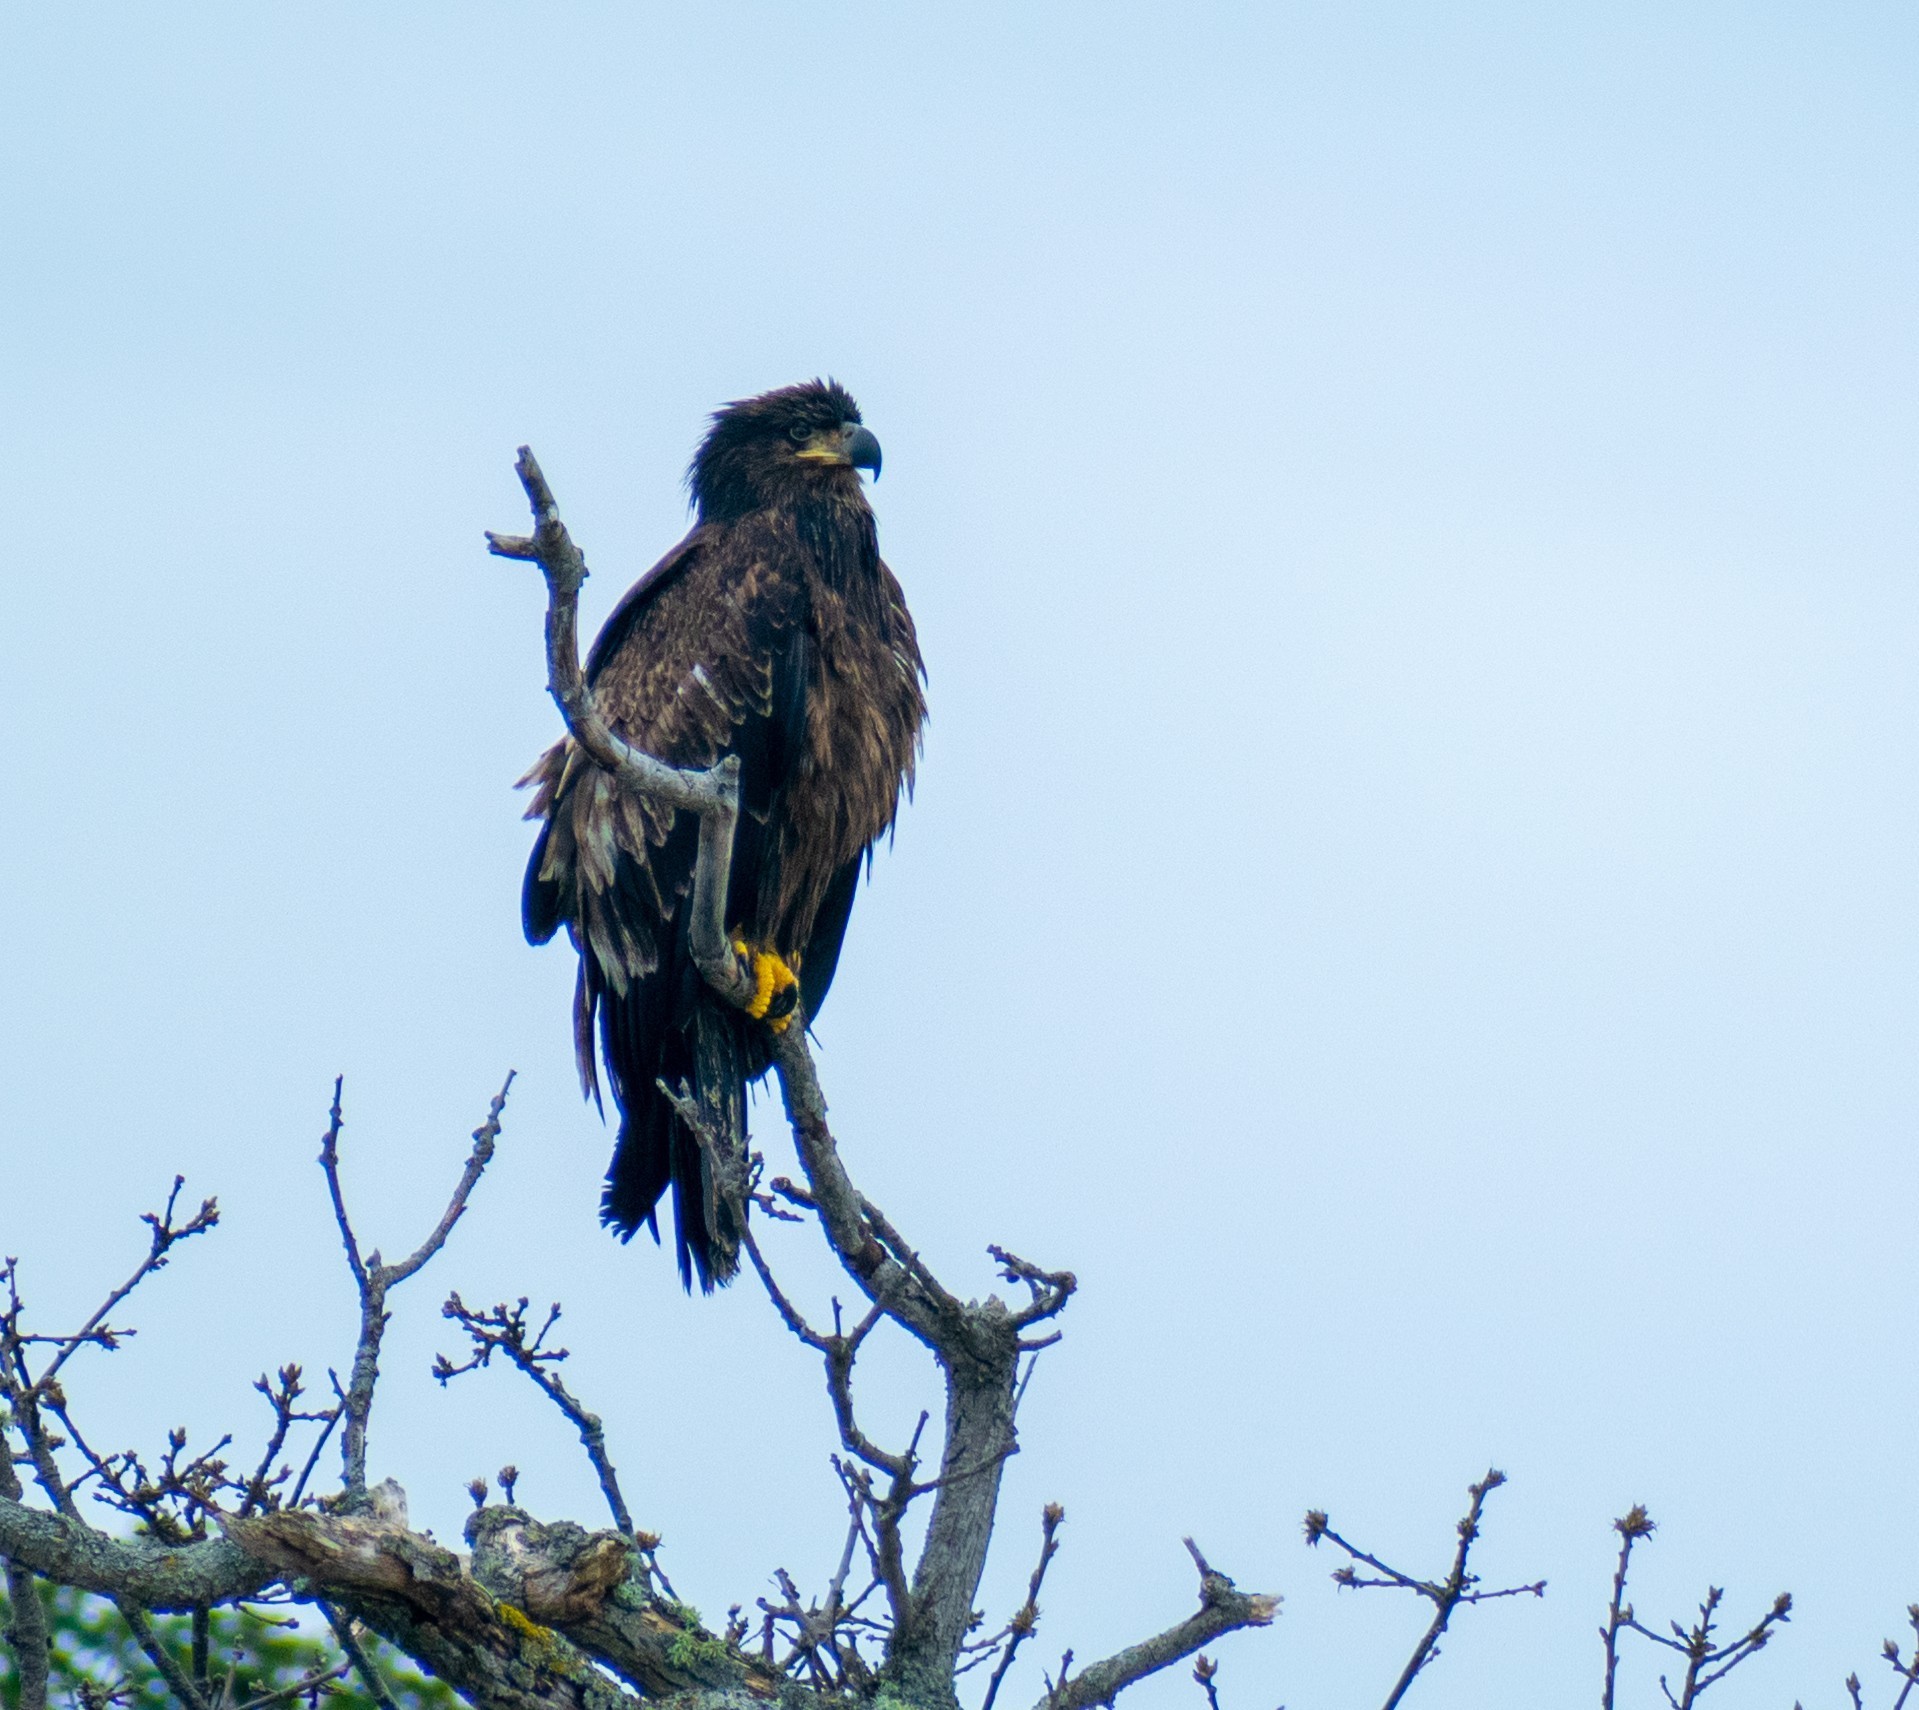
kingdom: Animalia
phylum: Chordata
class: Aves
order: Accipitriformes
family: Accipitridae
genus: Haliaeetus
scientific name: Haliaeetus leucocephalus
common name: Bald eagle
